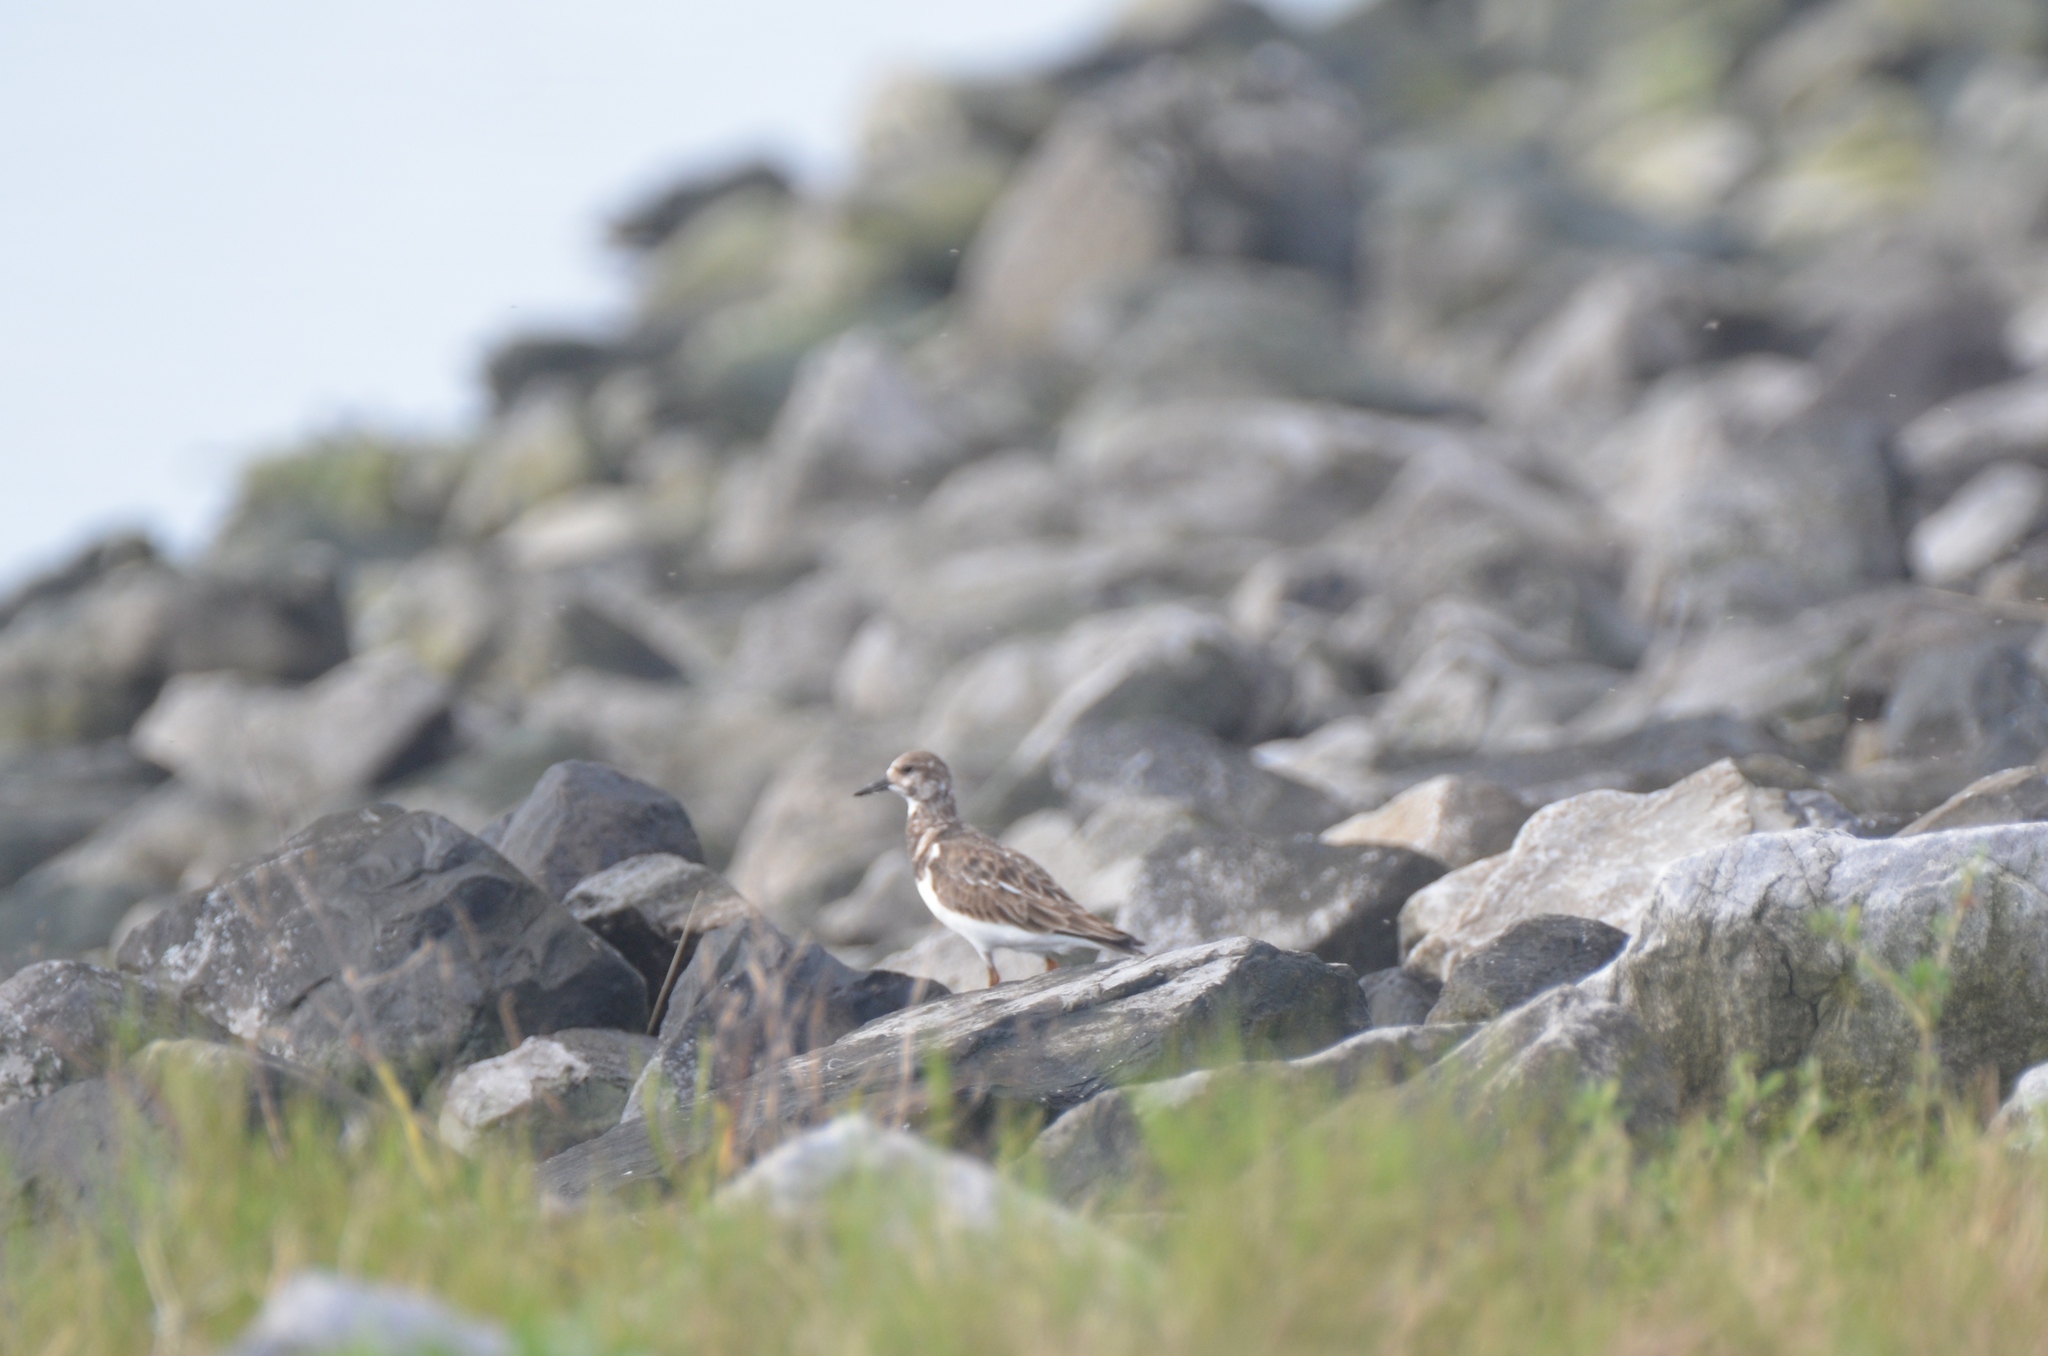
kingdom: Animalia
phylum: Chordata
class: Aves
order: Charadriiformes
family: Scolopacidae
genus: Arenaria
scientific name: Arenaria interpres
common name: Ruddy turnstone
